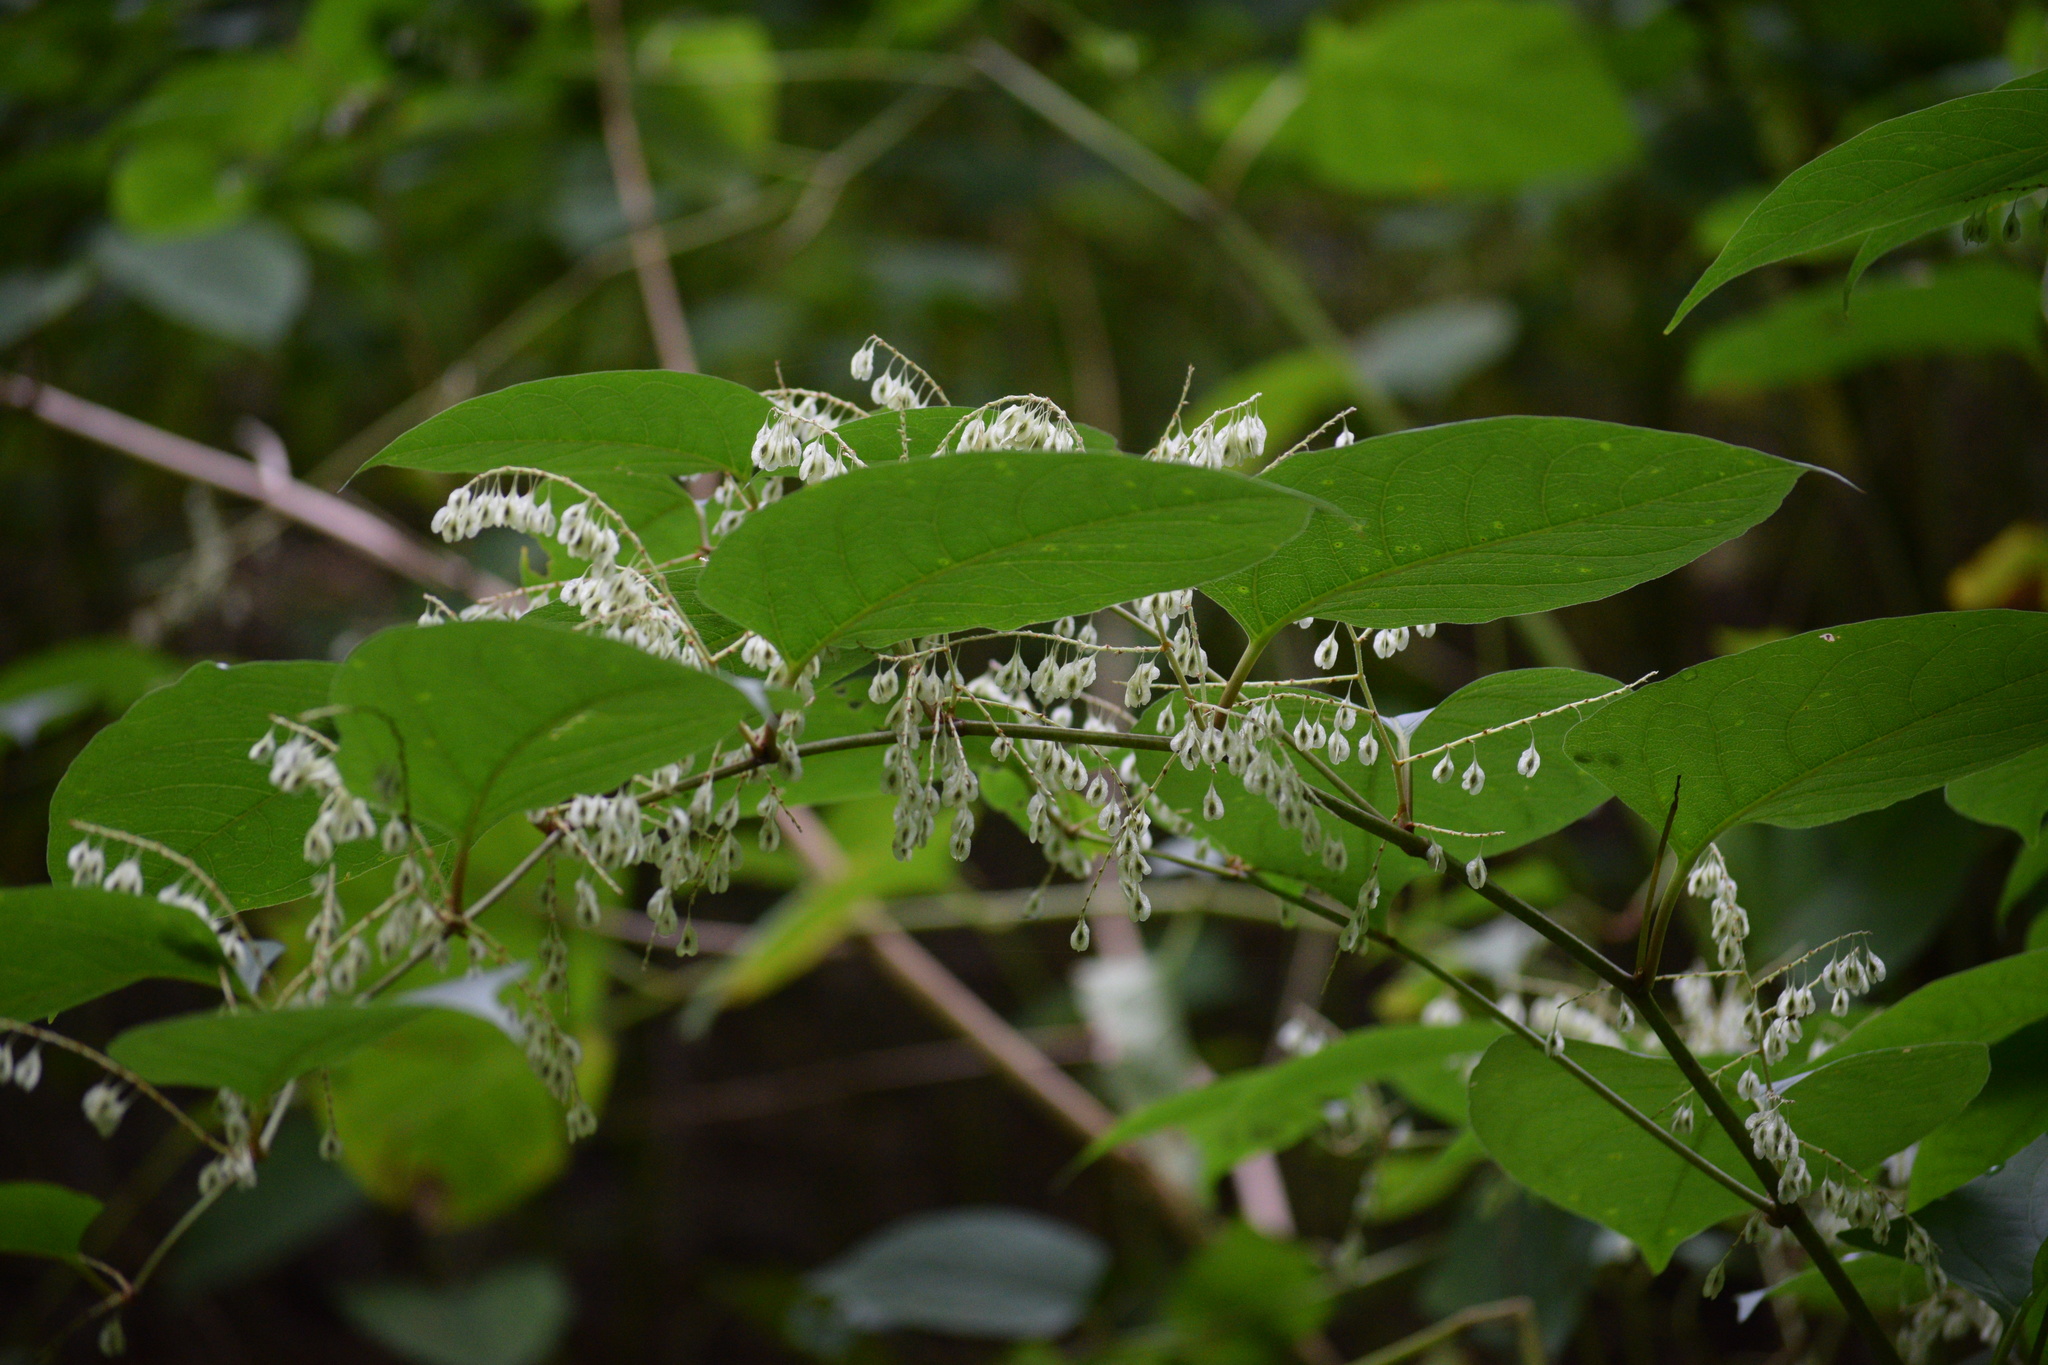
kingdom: Plantae
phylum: Tracheophyta
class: Magnoliopsida
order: Caryophyllales
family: Polygonaceae
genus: Reynoutria
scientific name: Reynoutria japonica
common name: Japanese knotweed
